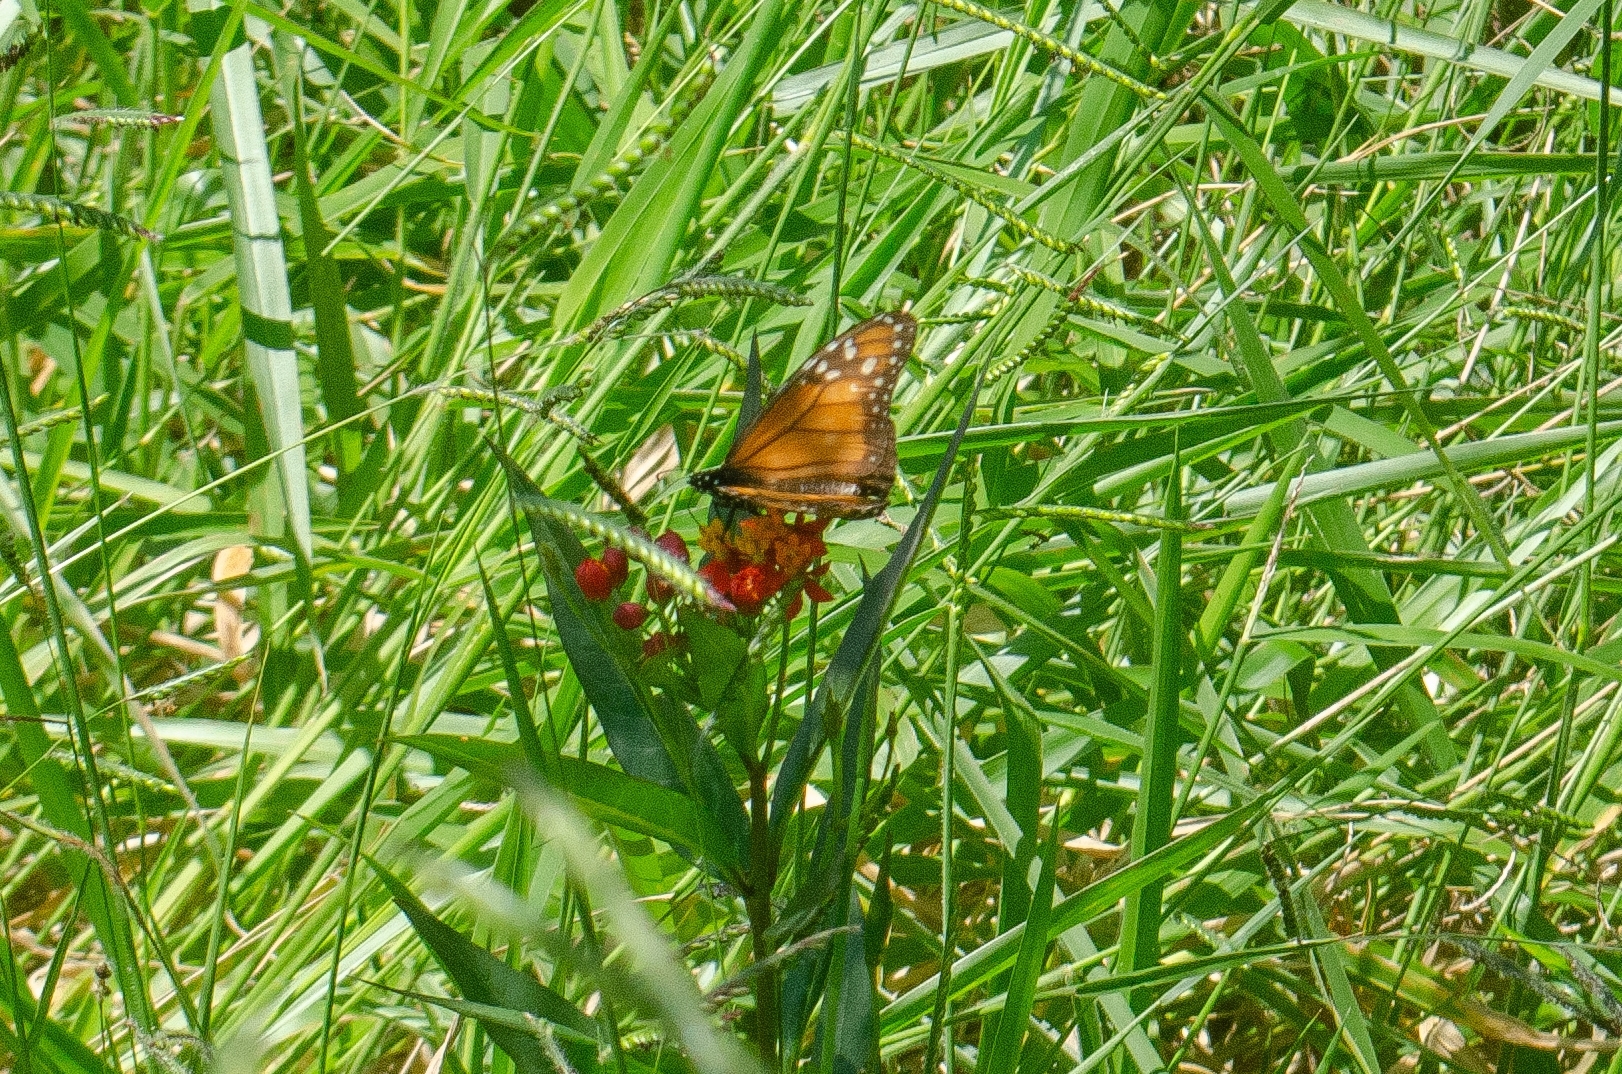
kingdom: Animalia
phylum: Arthropoda
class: Insecta
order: Lepidoptera
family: Nymphalidae
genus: Danaus
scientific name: Danaus erippus
